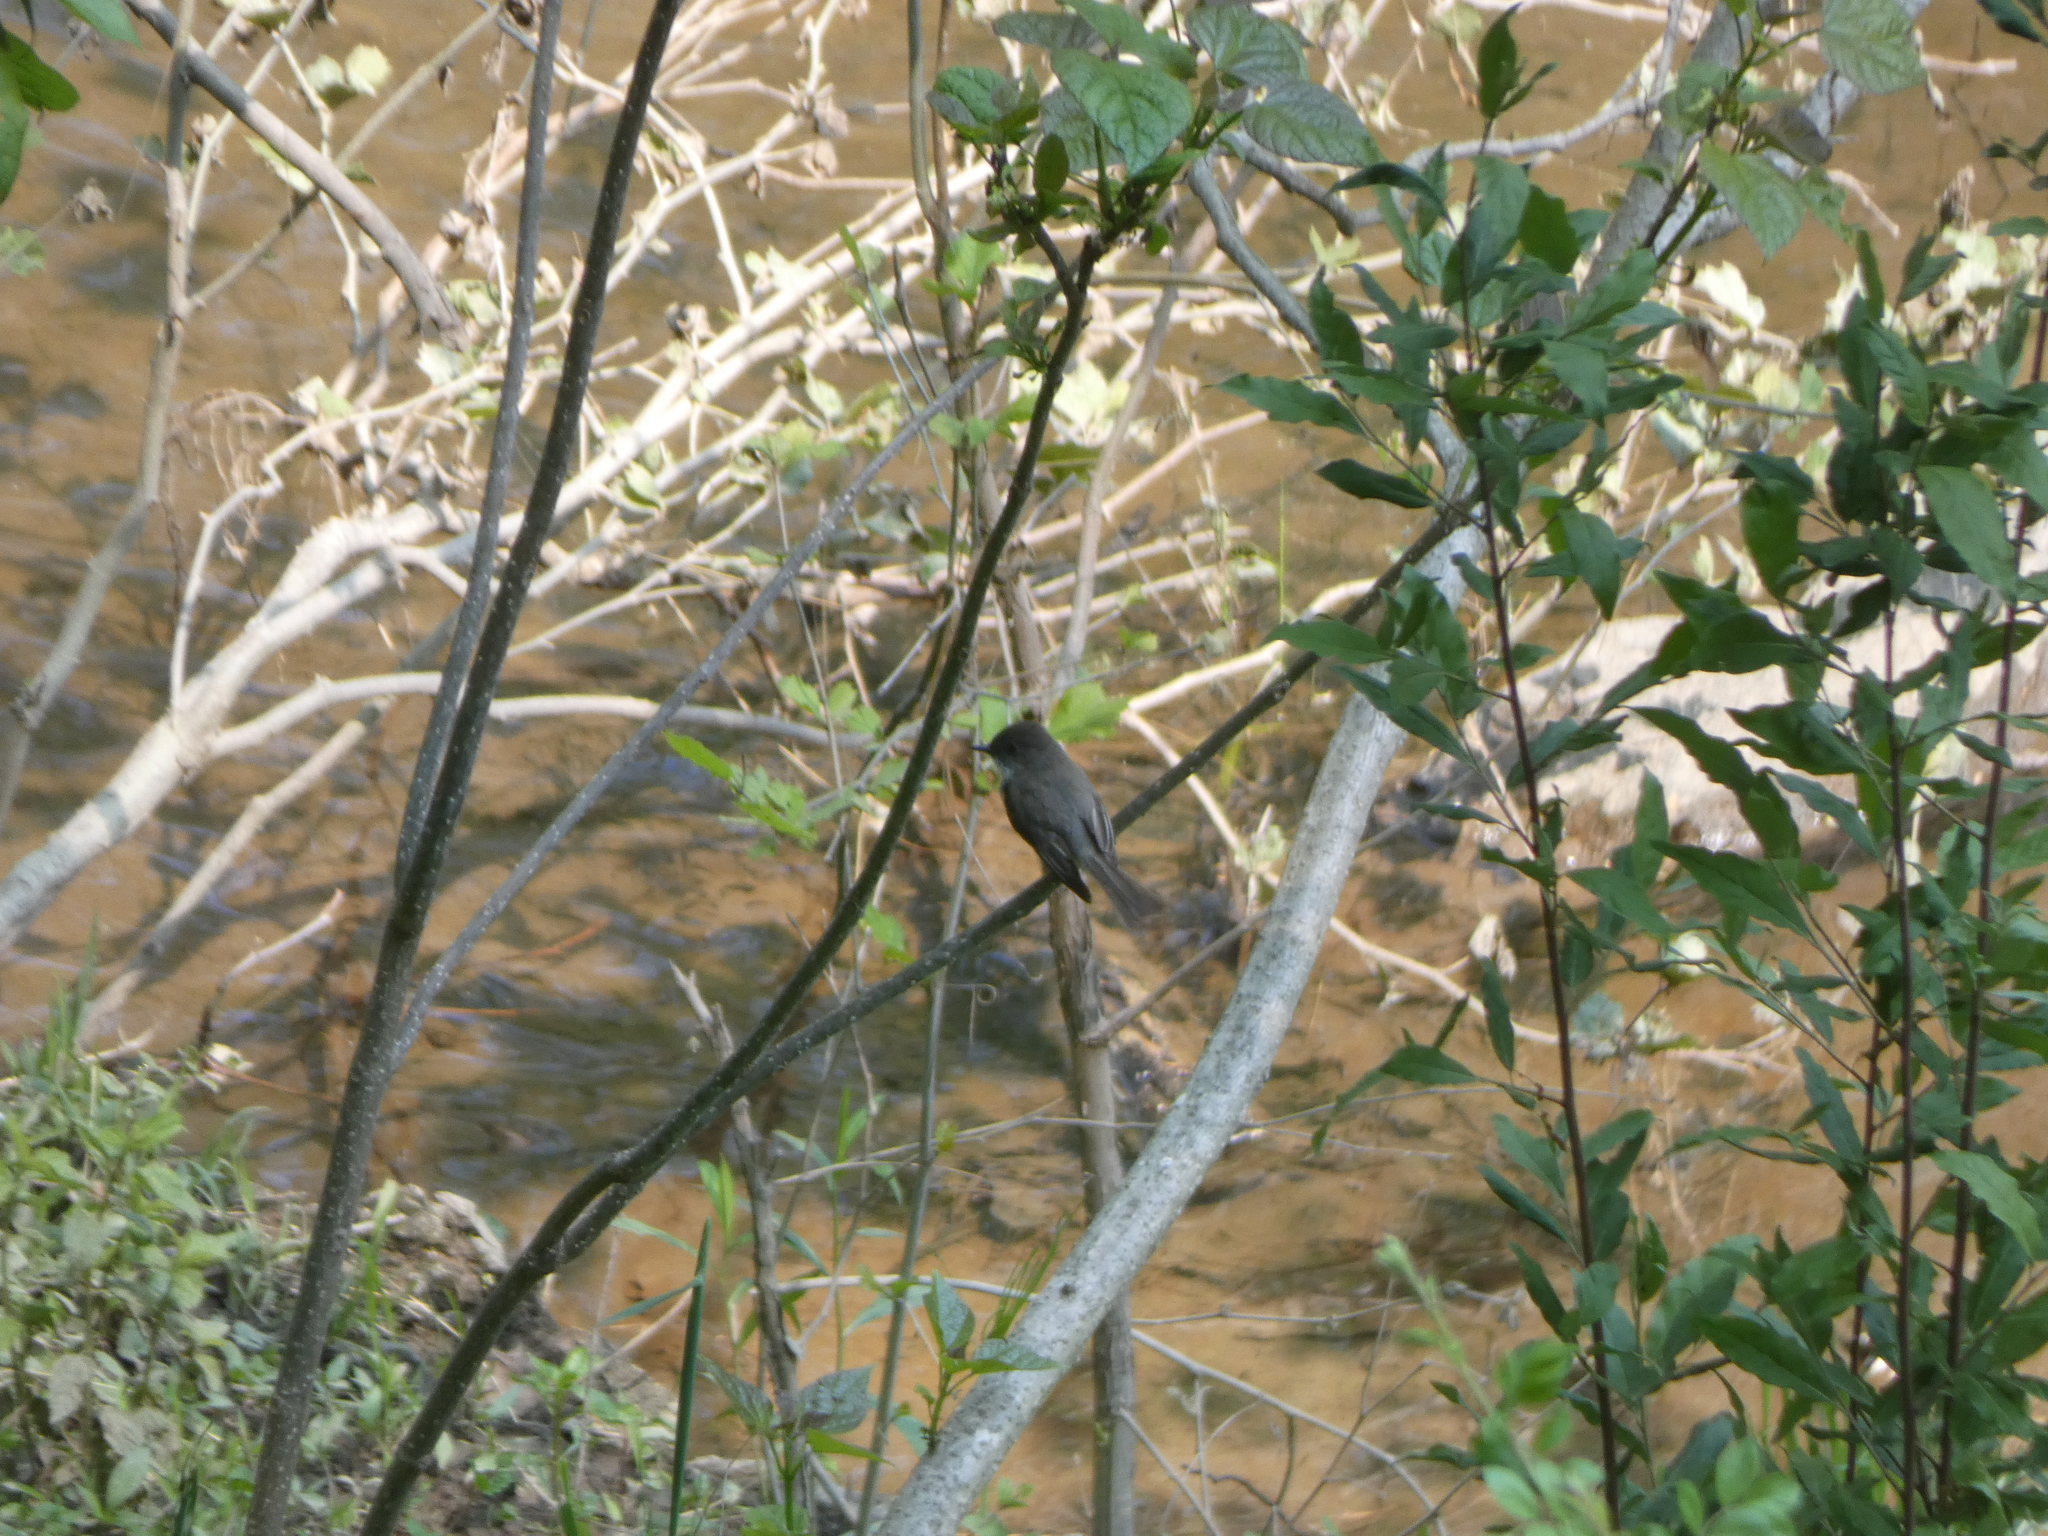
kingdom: Animalia
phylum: Chordata
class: Aves
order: Pelecaniformes
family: Ardeidae
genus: Ardea
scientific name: Ardea herodias
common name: Great blue heron
